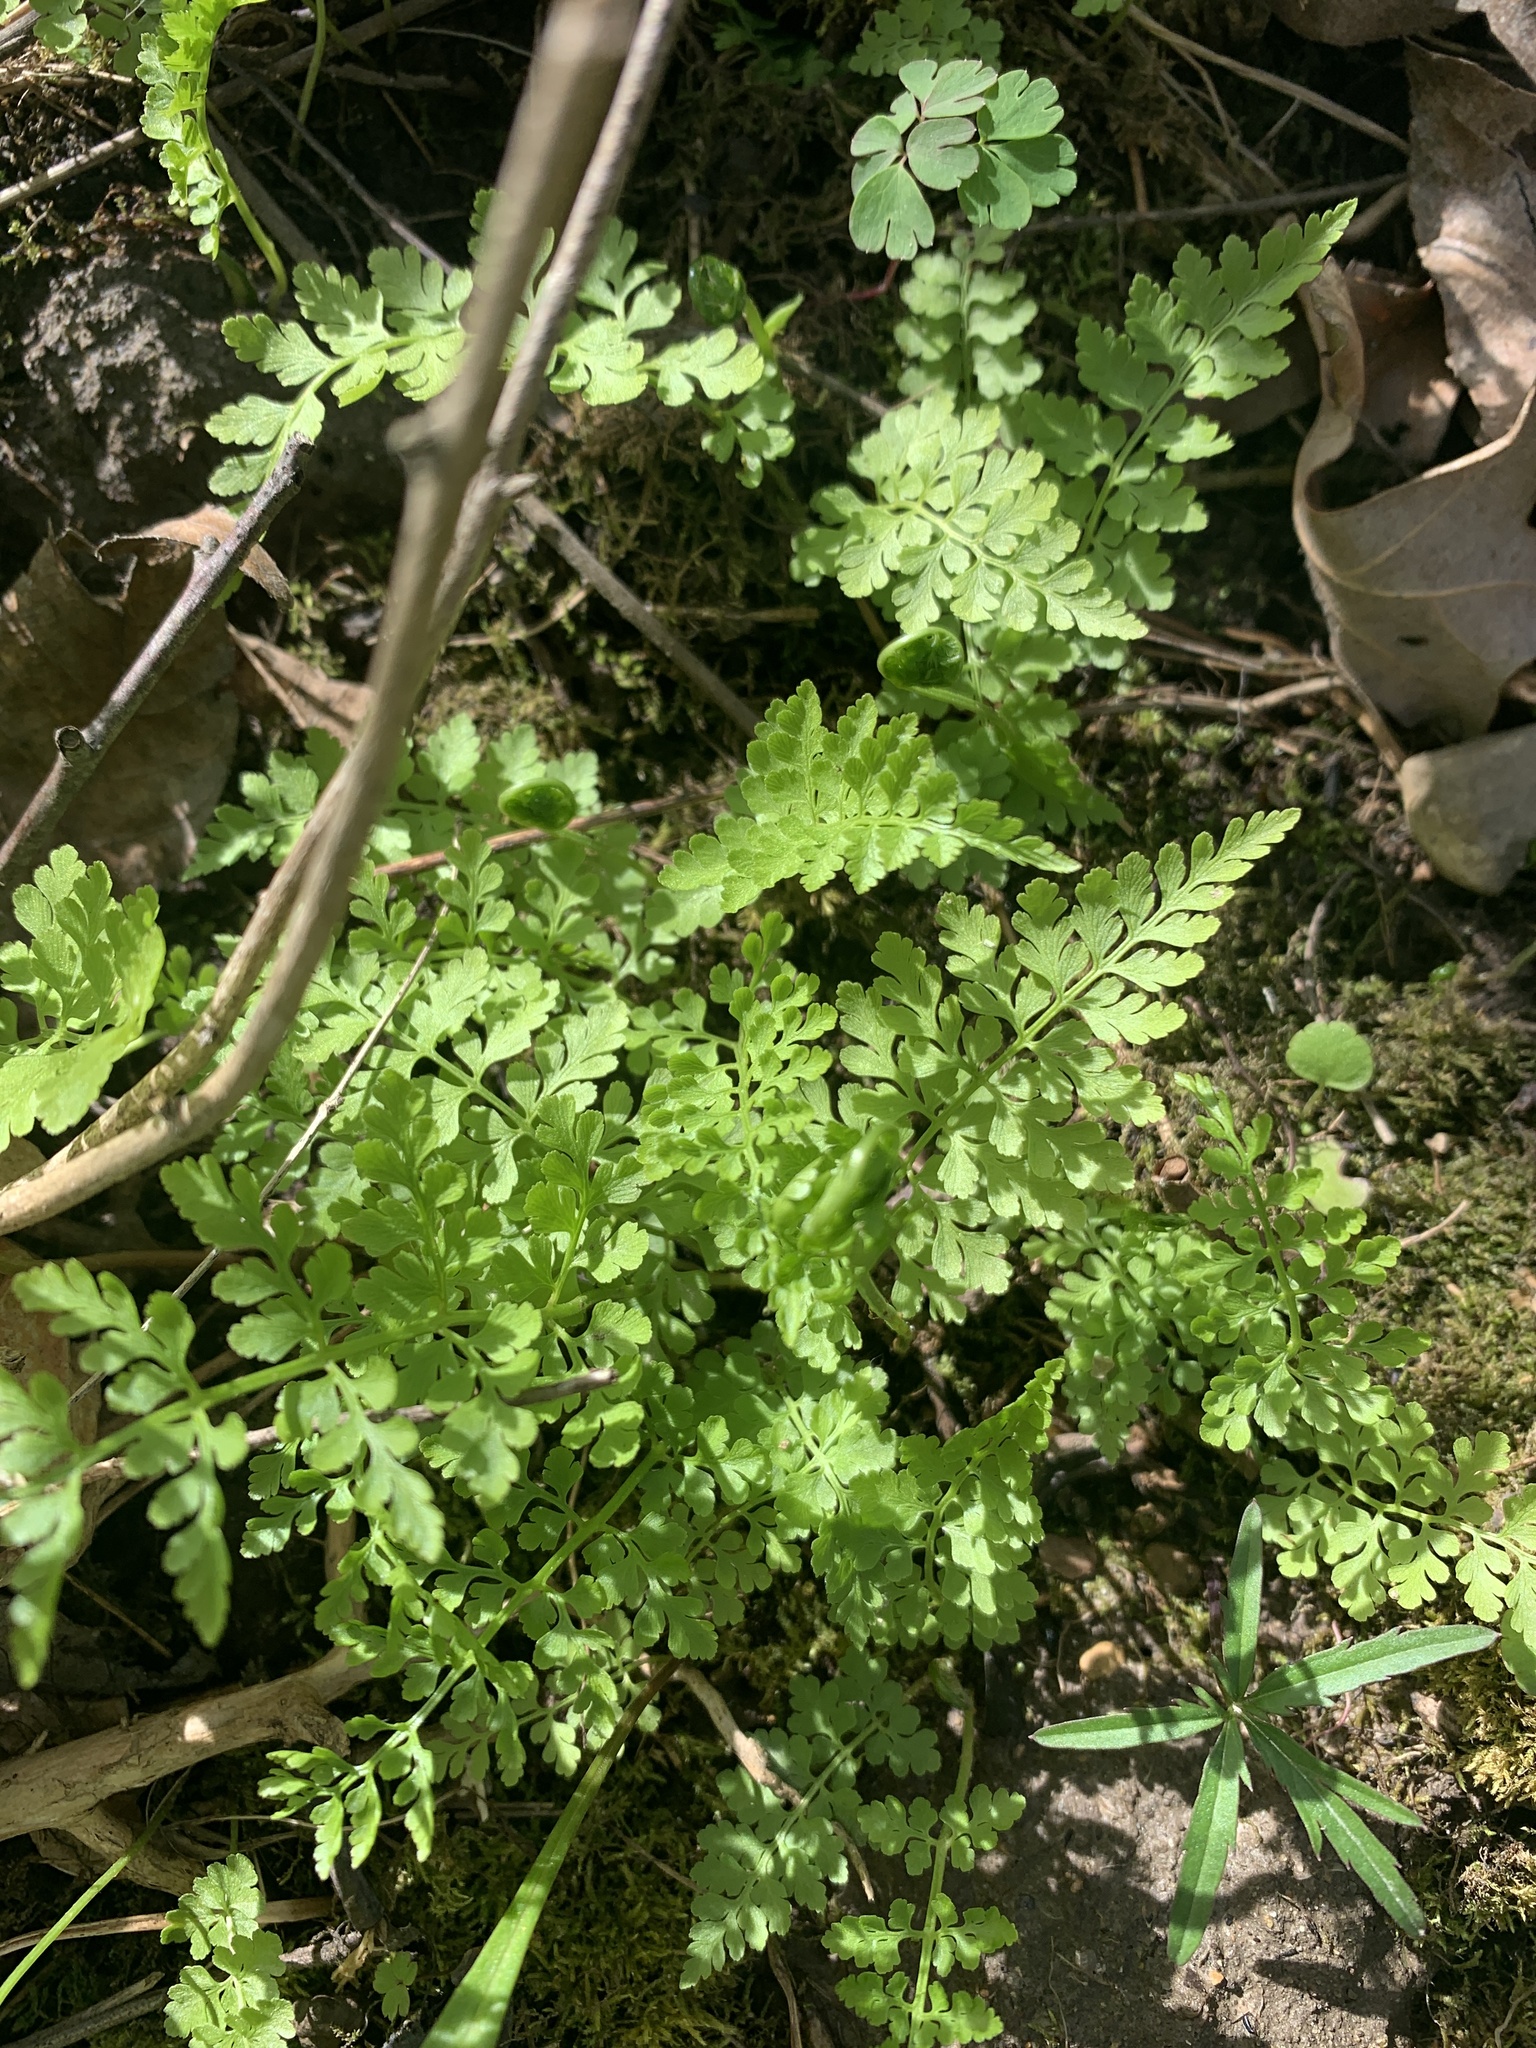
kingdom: Plantae
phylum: Tracheophyta
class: Polypodiopsida
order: Polypodiales
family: Cystopteridaceae
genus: Cystopteris
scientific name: Cystopteris protrusa
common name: Lowland brittle fern
